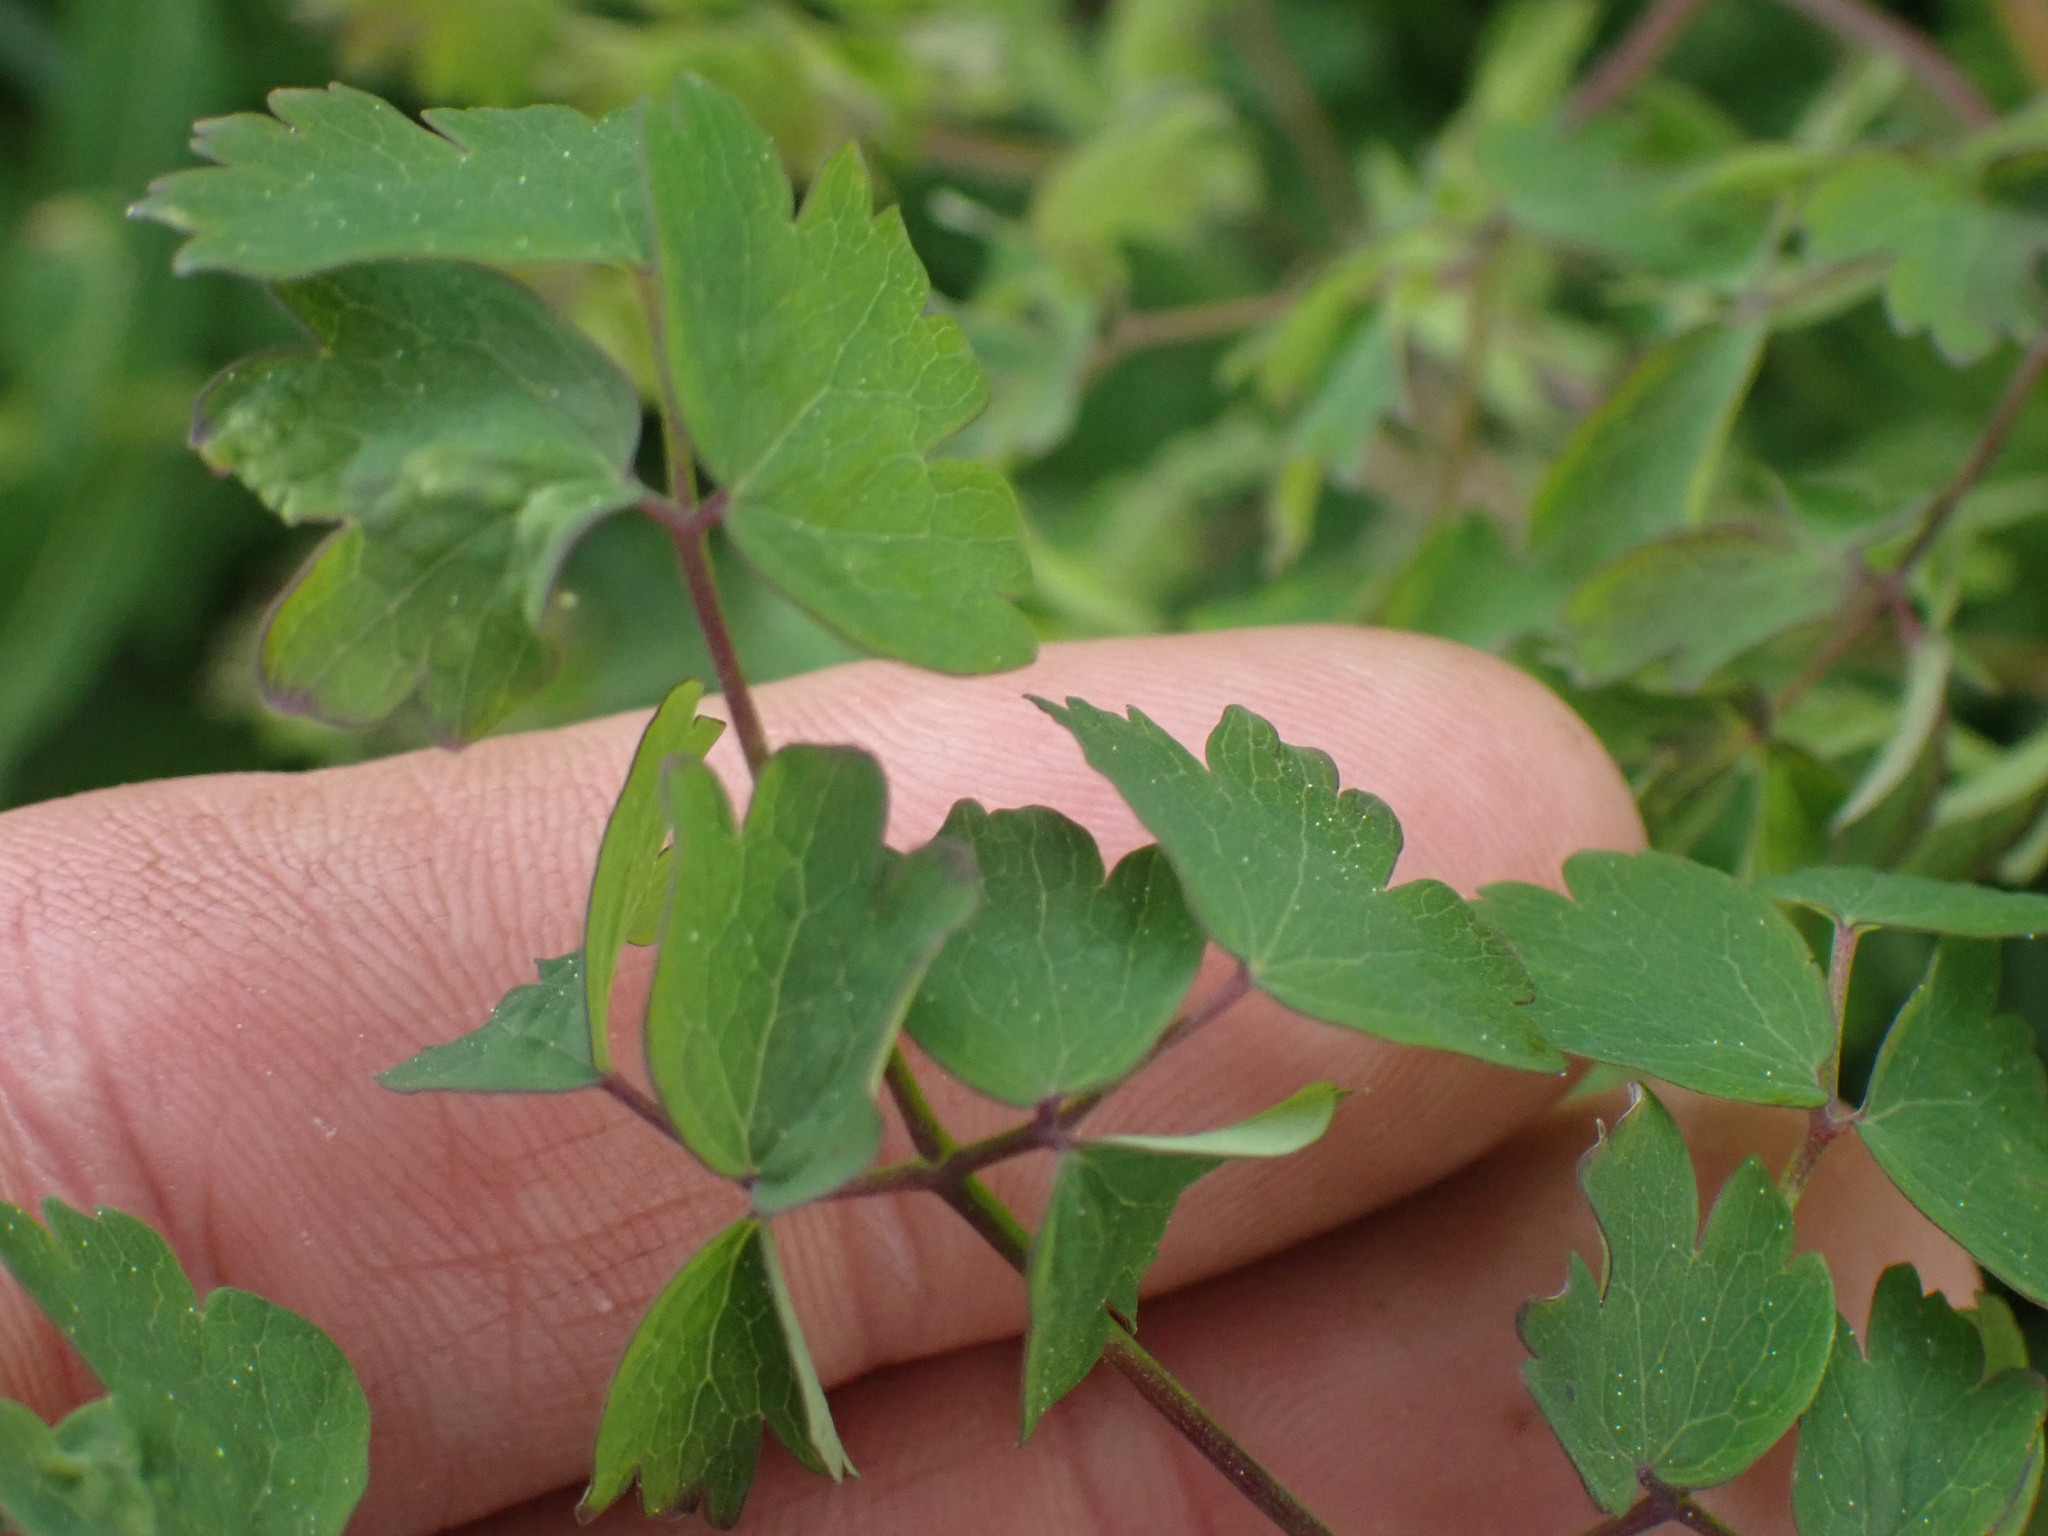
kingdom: Plantae
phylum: Tracheophyta
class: Magnoliopsida
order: Ranunculales
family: Ranunculaceae
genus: Thalictrum
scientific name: Thalictrum occidentale
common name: Western meadow-rue
